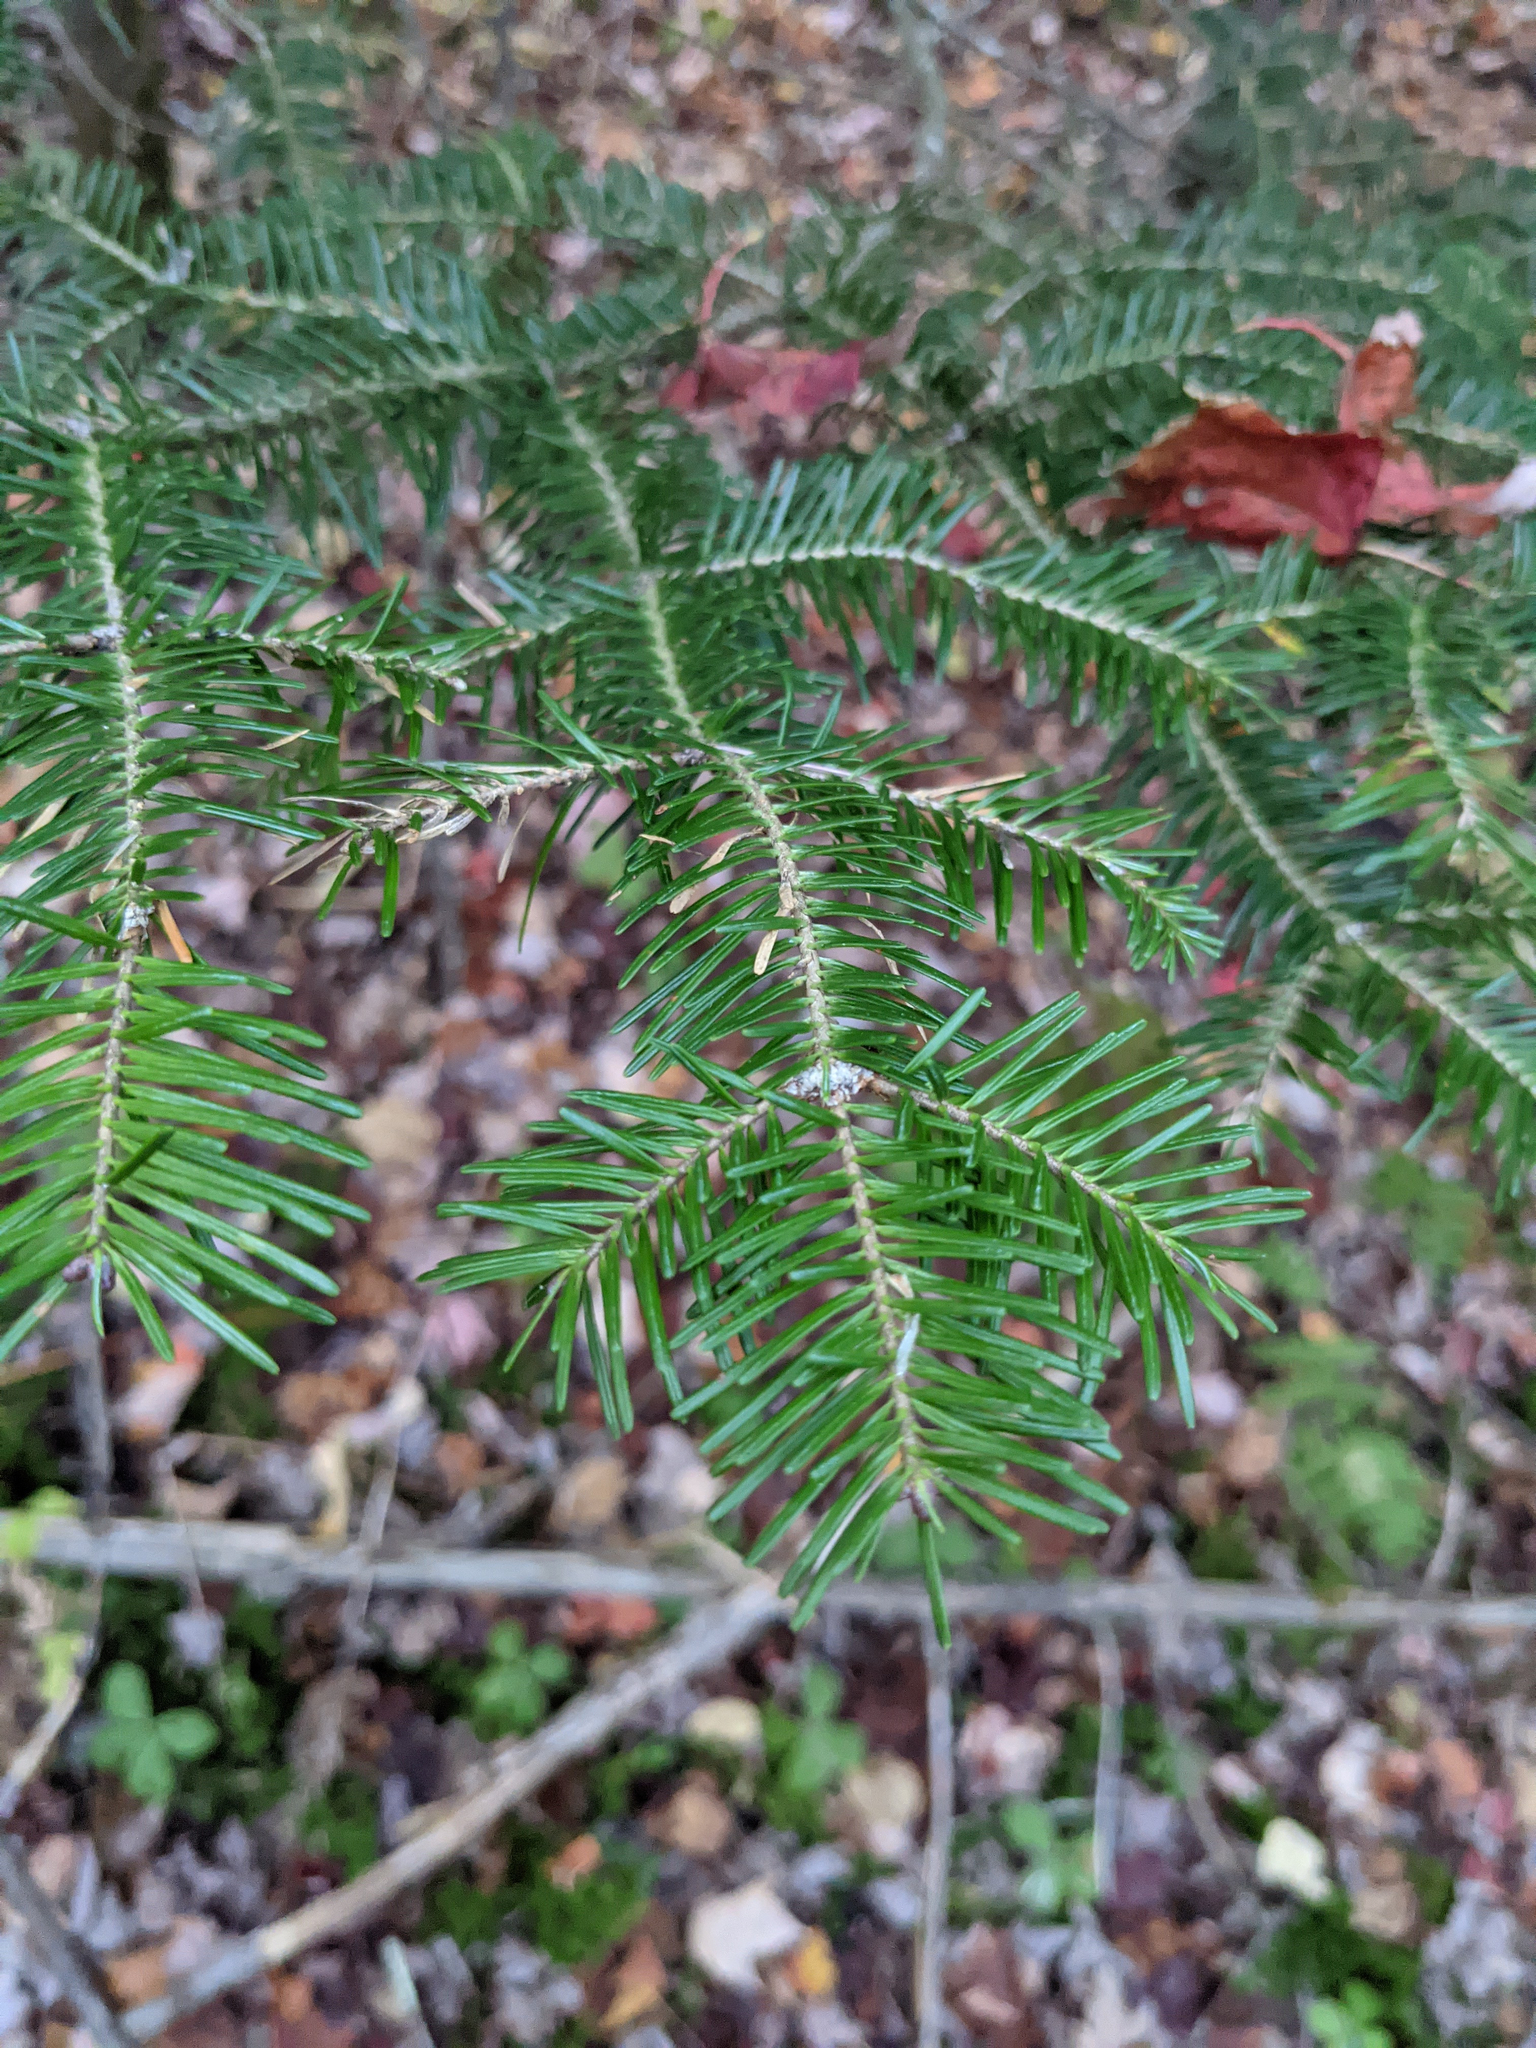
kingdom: Plantae
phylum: Tracheophyta
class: Pinopsida
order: Pinales
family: Pinaceae
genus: Abies
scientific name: Abies balsamea
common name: Balsam fir
